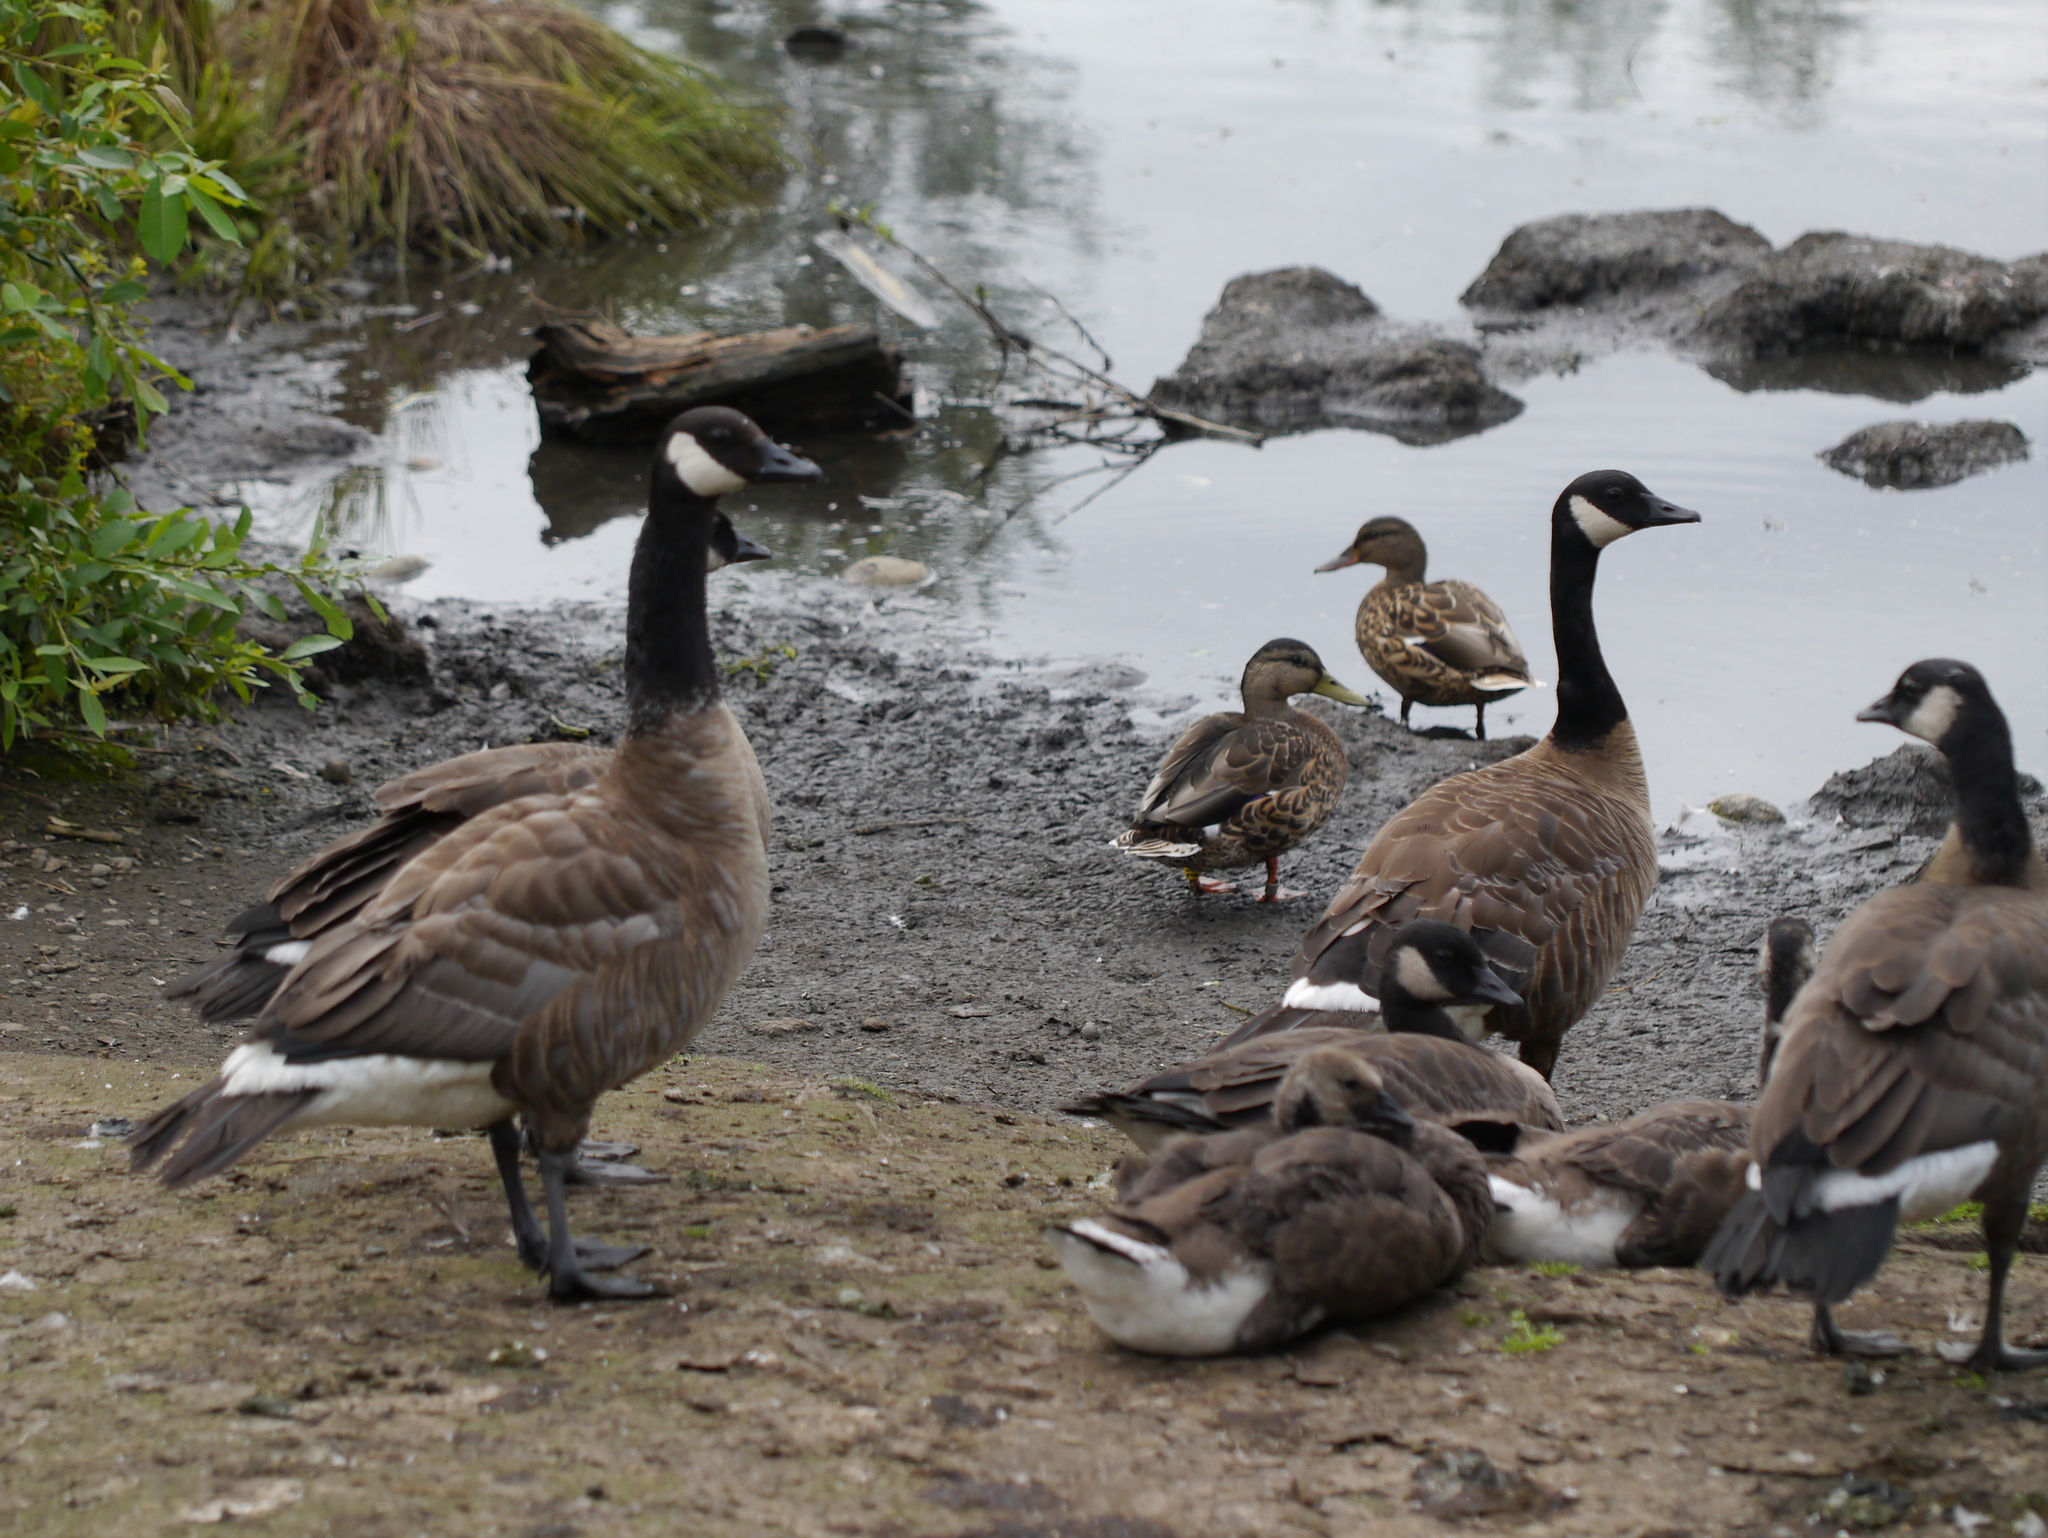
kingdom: Animalia
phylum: Chordata
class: Aves
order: Anseriformes
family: Anatidae
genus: Branta
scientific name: Branta canadensis
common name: Canada goose
